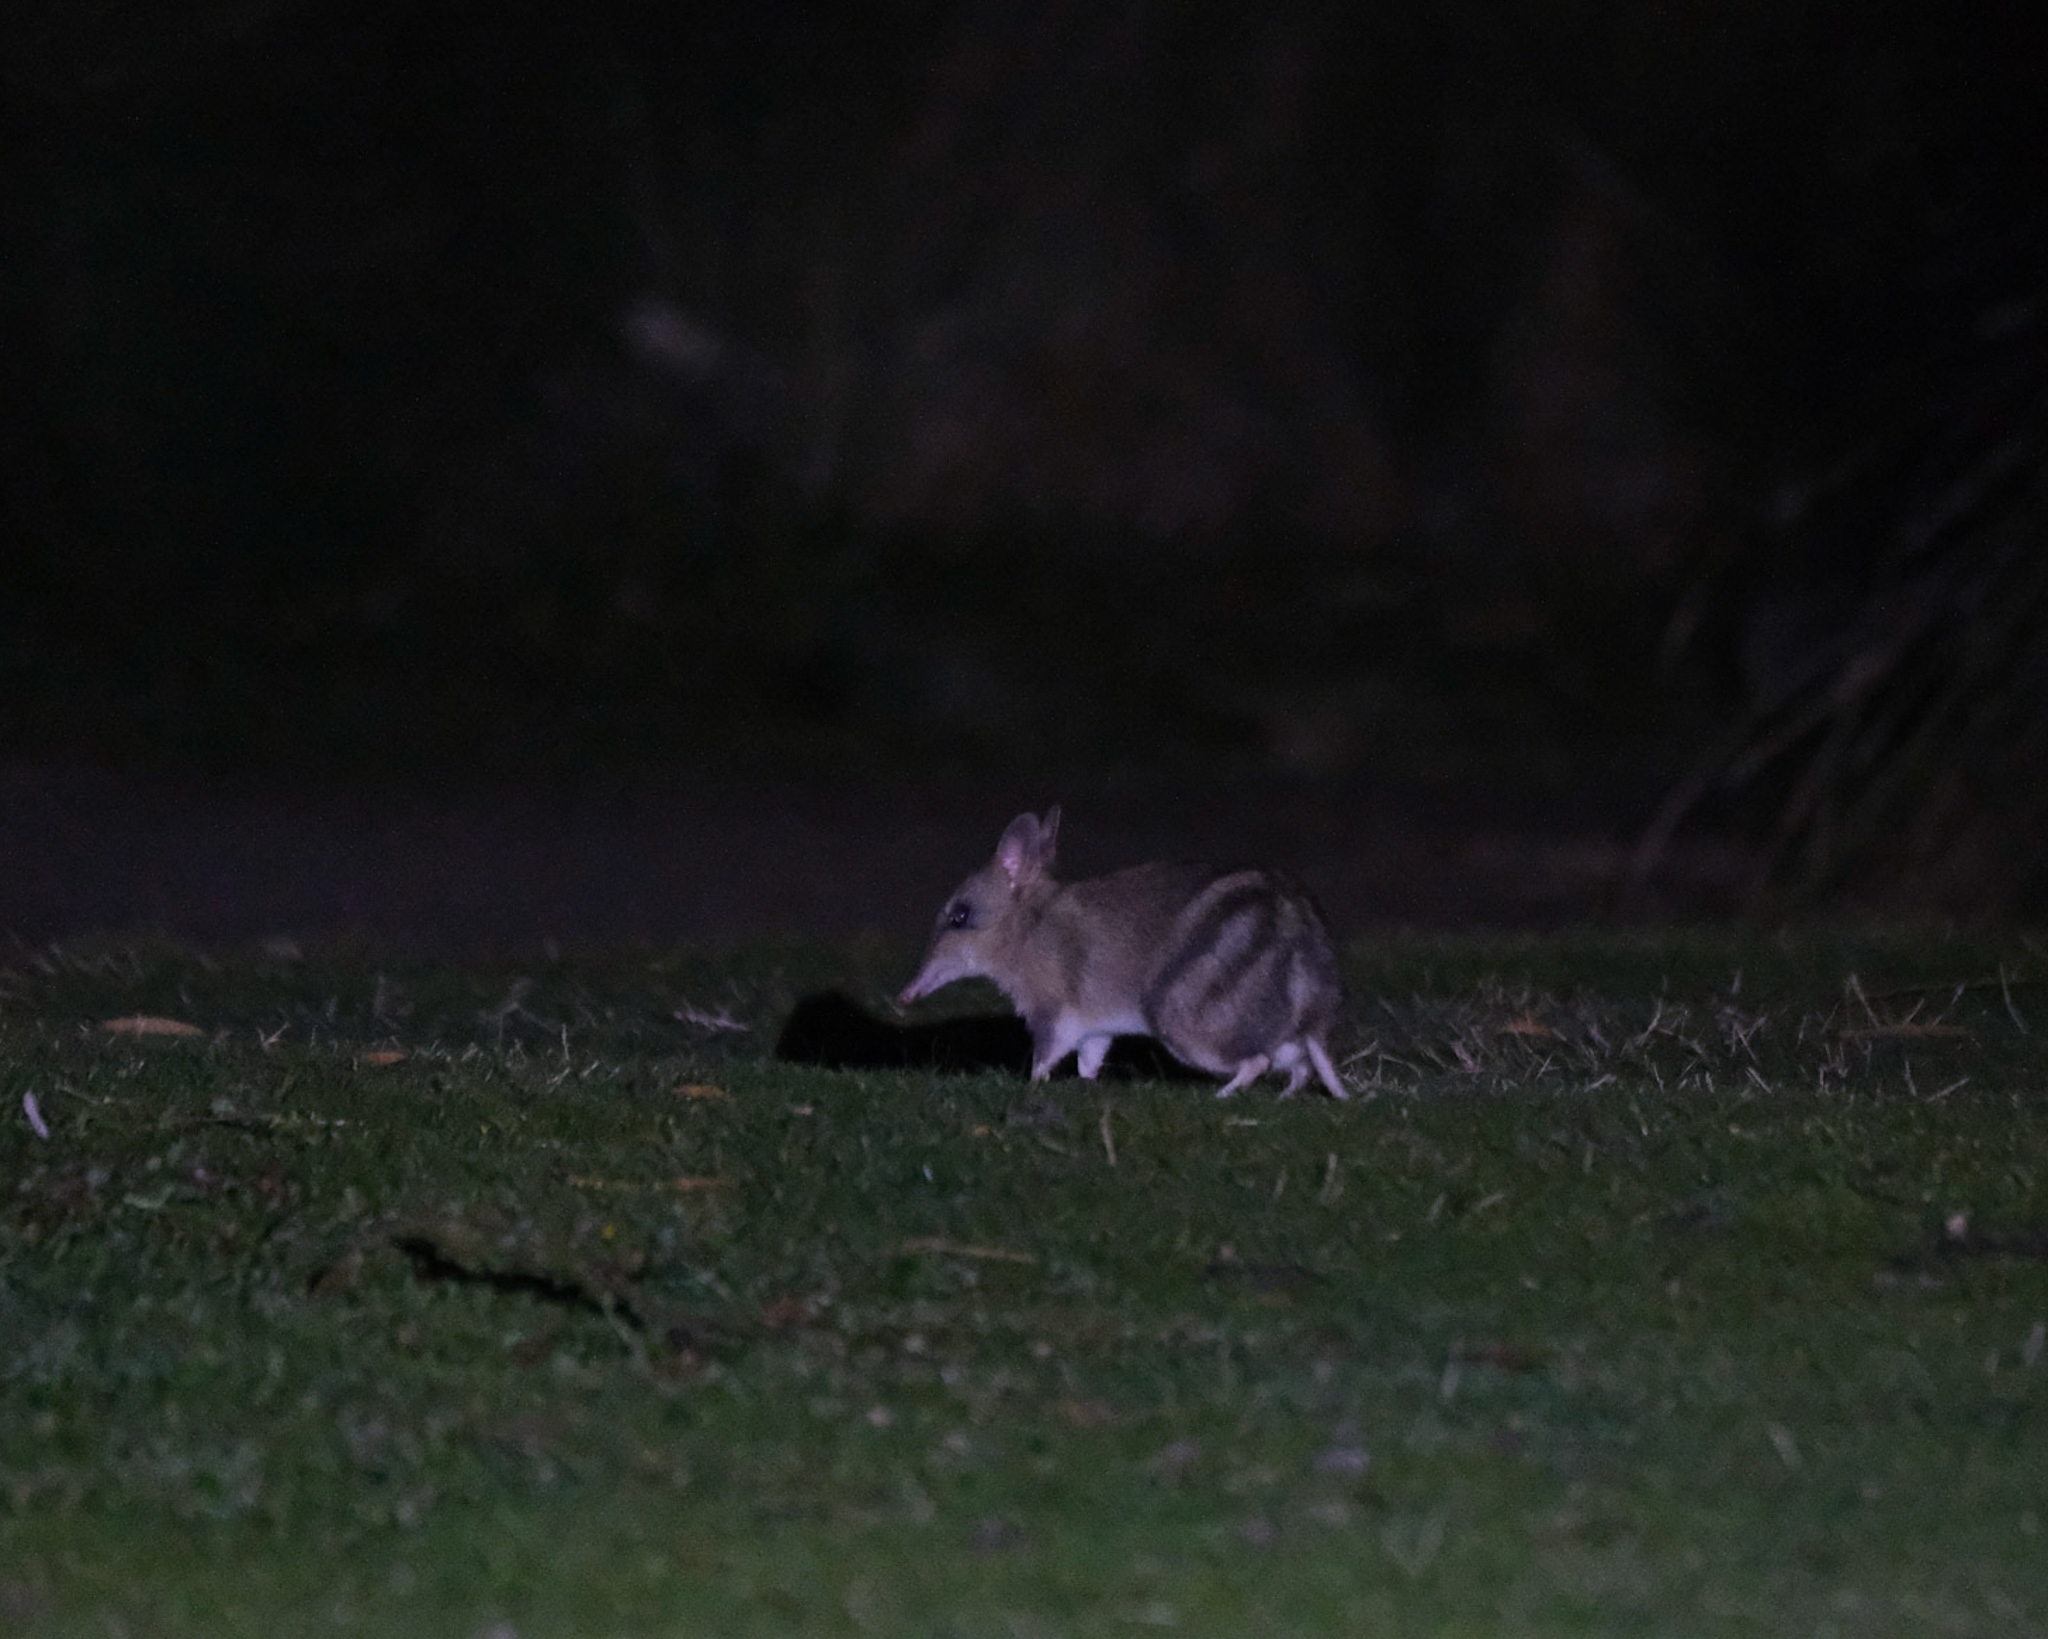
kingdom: Animalia
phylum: Chordata
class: Mammalia
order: Peramelemorphia
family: Peramelidae
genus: Perameles
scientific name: Perameles gunnii
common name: Eastern barred bandicoot
